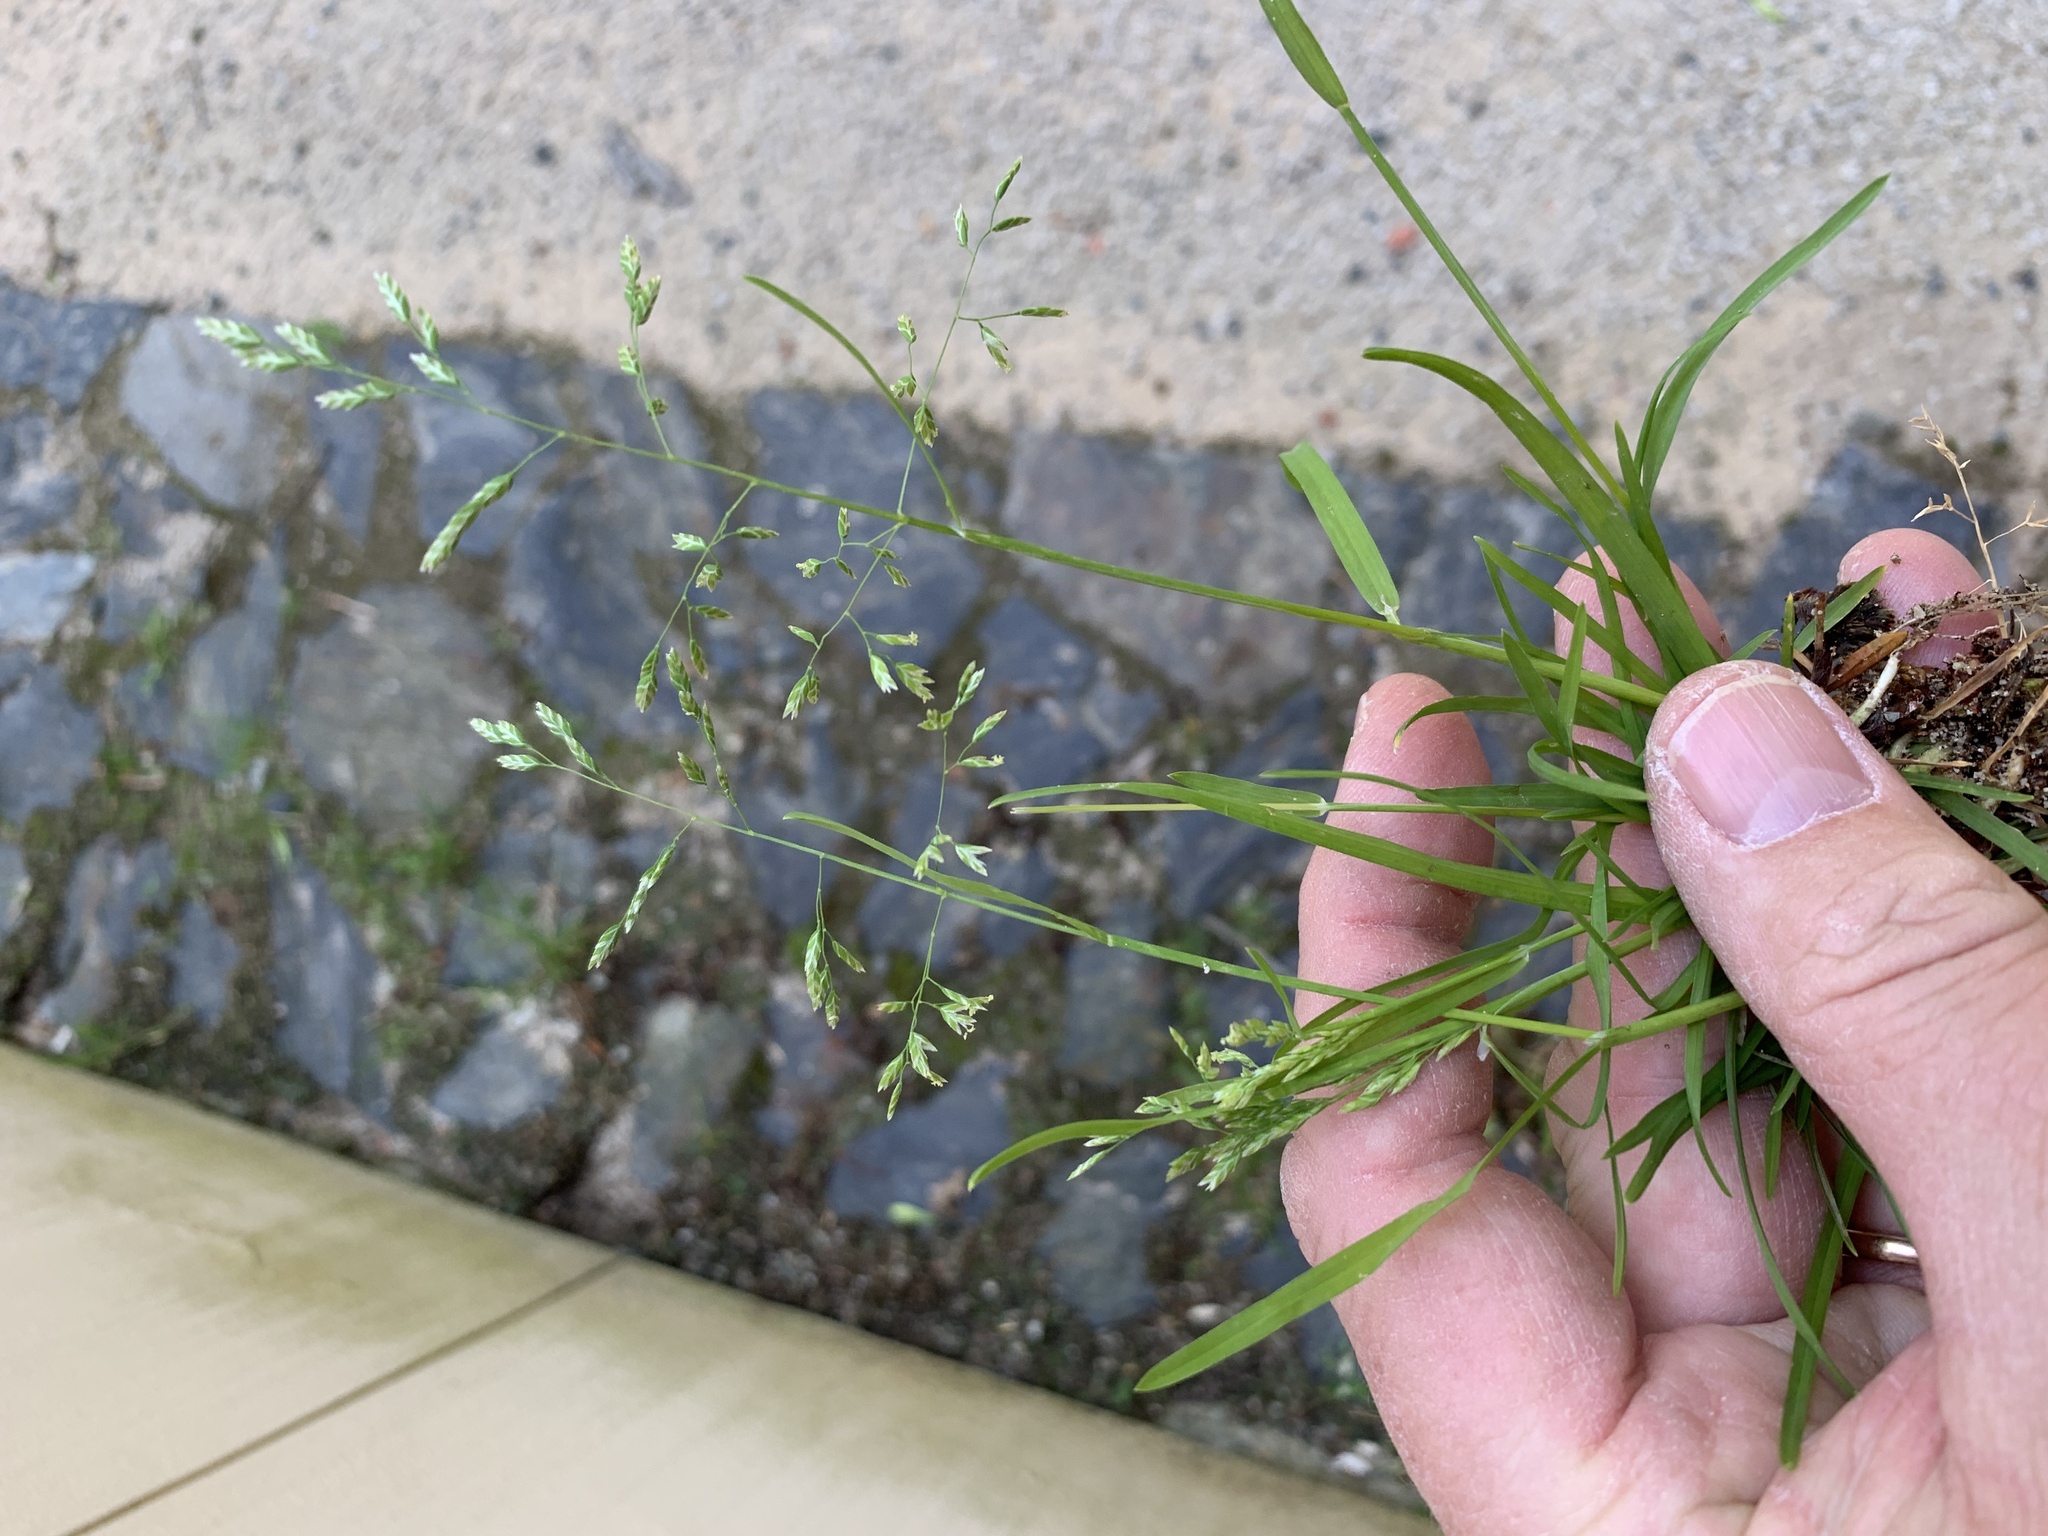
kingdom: Plantae
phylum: Tracheophyta
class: Liliopsida
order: Poales
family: Poaceae
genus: Poa
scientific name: Poa annua
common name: Annual bluegrass
